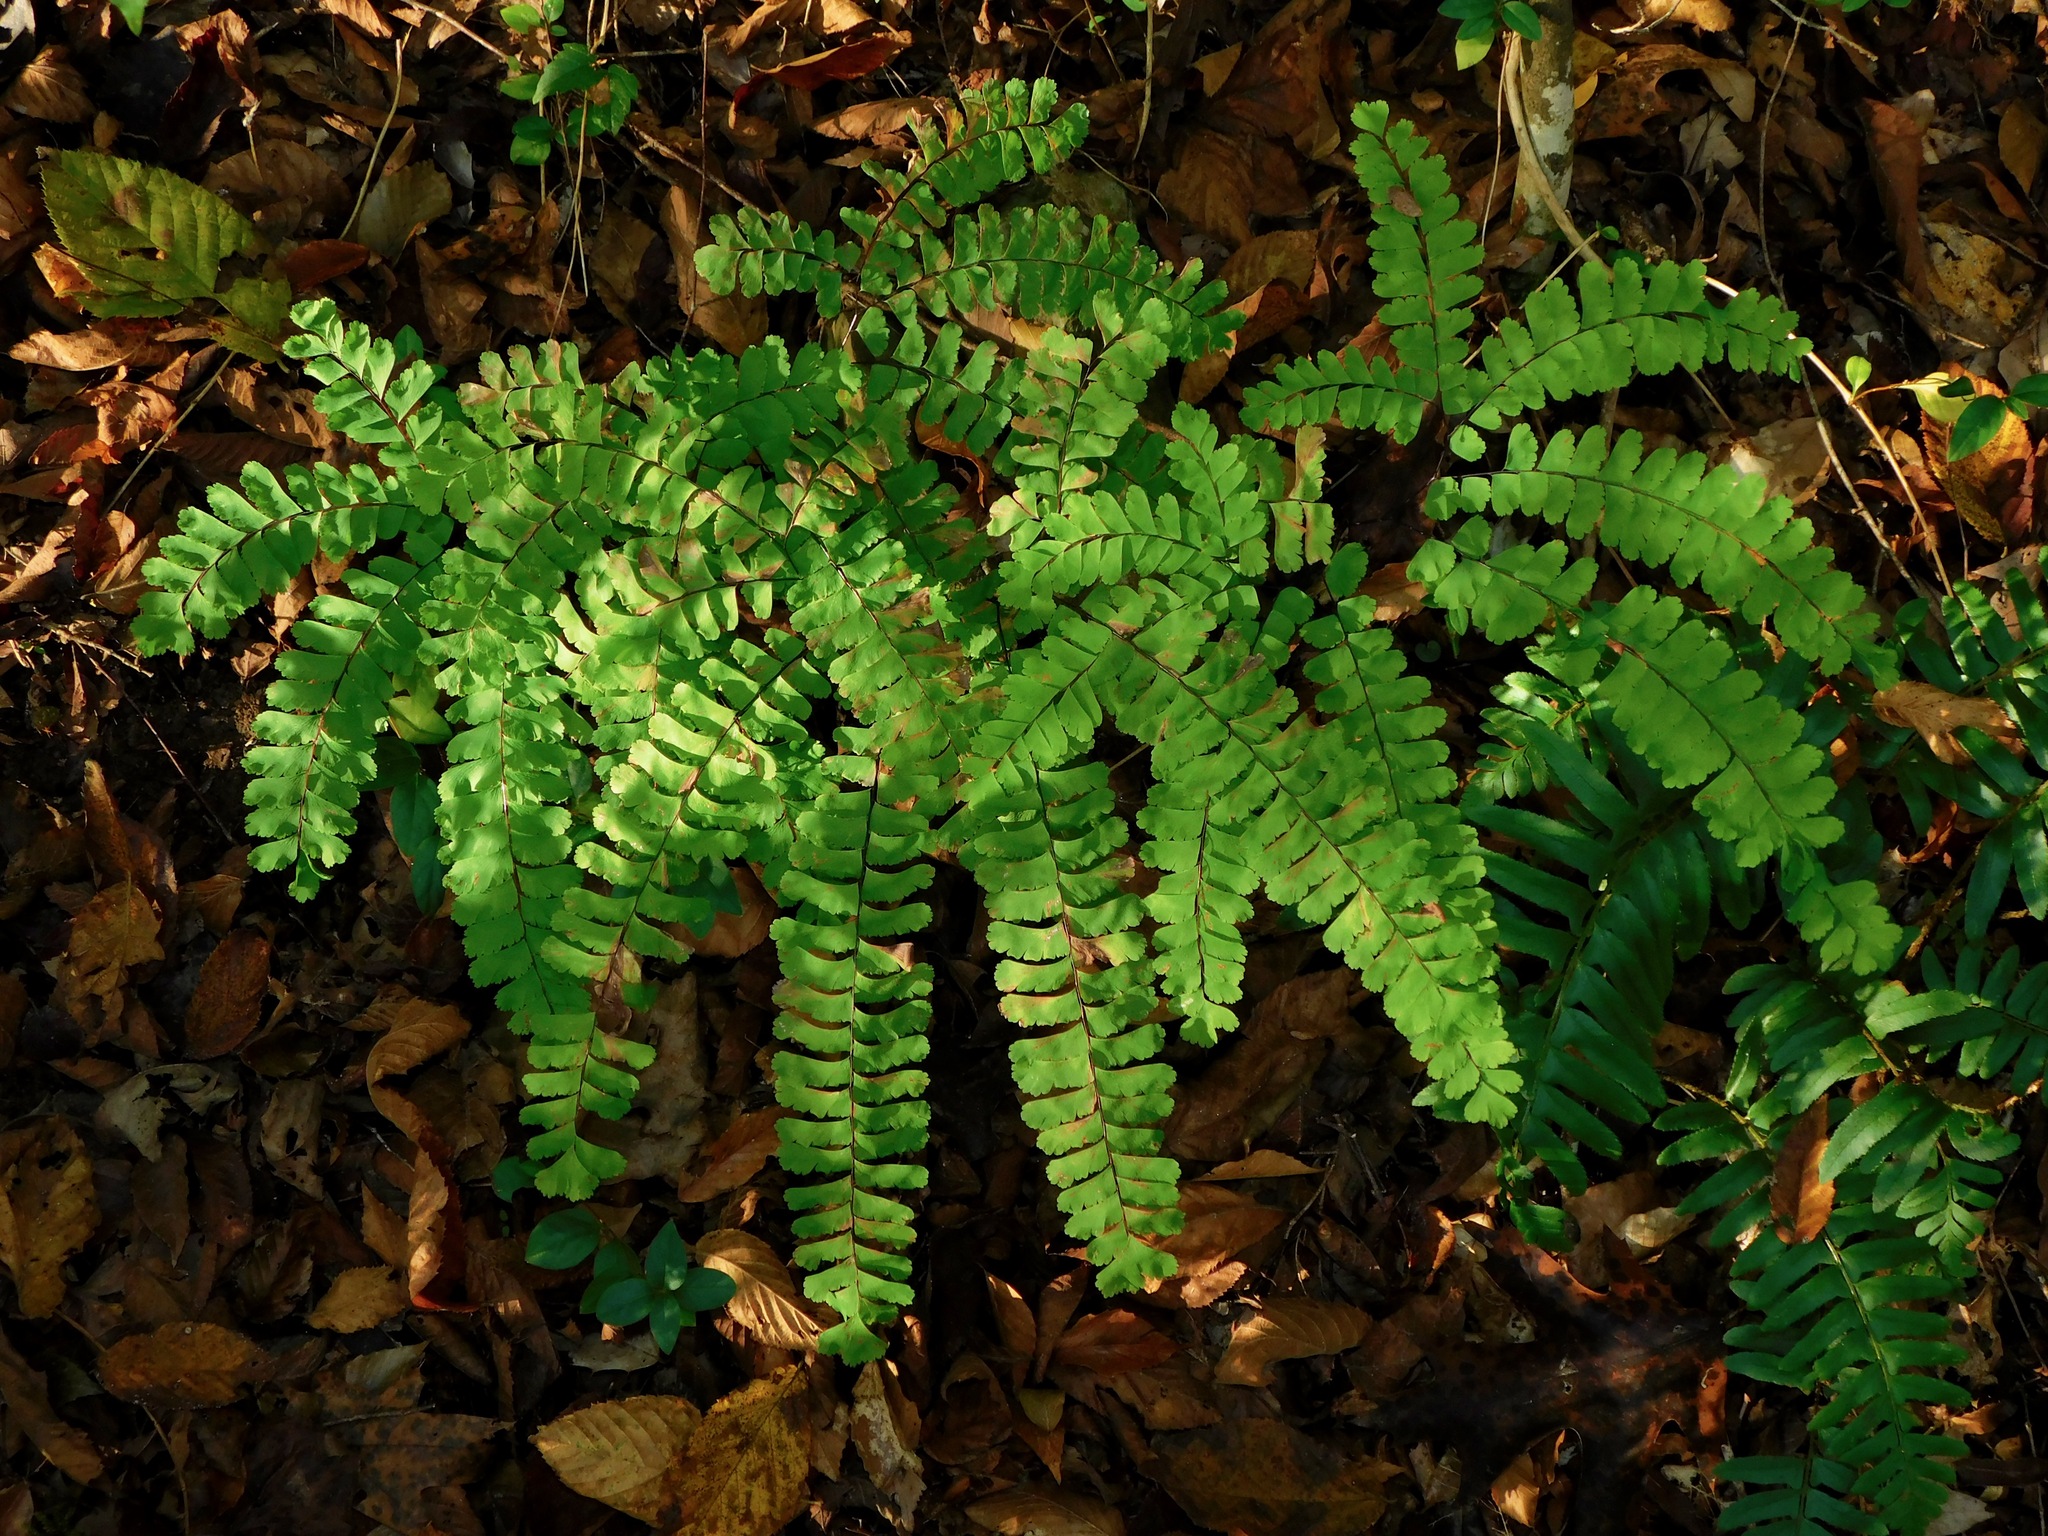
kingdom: Plantae
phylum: Tracheophyta
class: Polypodiopsida
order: Polypodiales
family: Pteridaceae
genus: Adiantum
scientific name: Adiantum pedatum
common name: Five-finger fern
